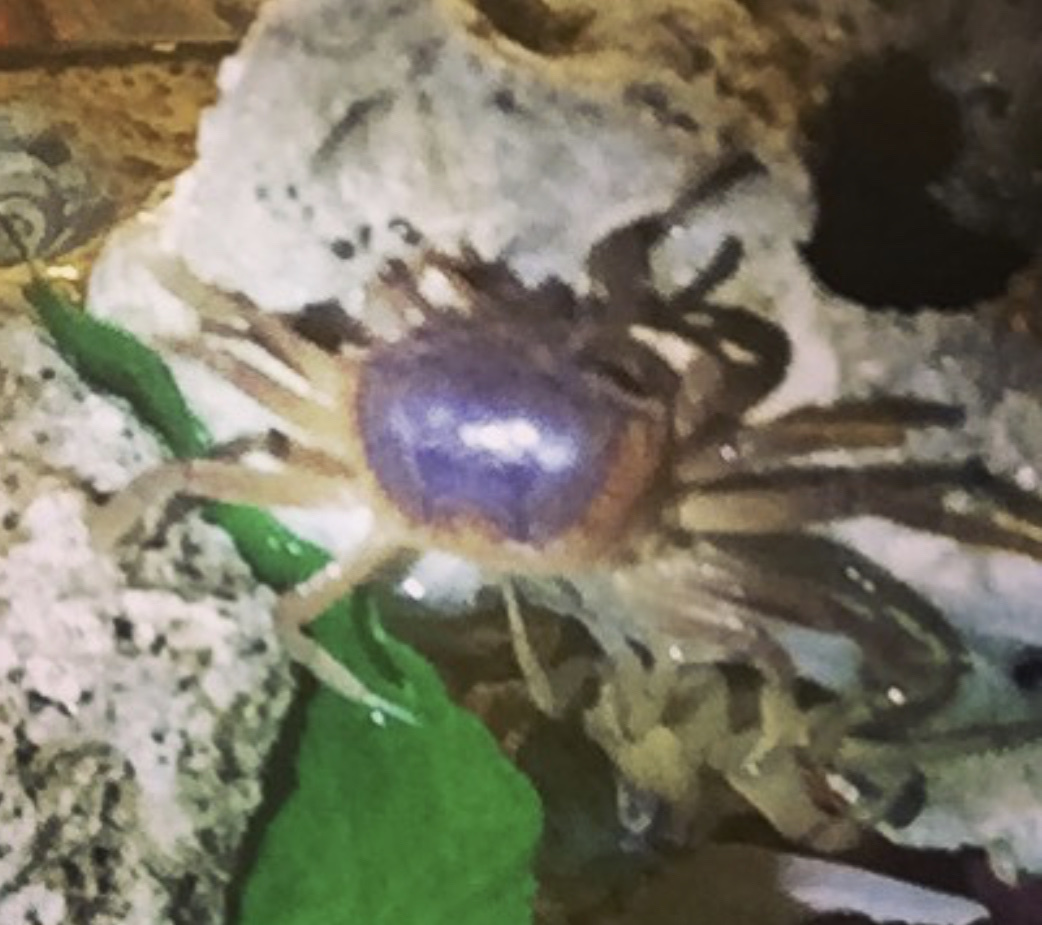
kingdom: Animalia
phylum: Arthropoda
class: Malacostraca
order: Decapoda
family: Ocypodidae
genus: Leptuca
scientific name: Leptuca pugilator
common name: Atlantic sand fiddler crab
